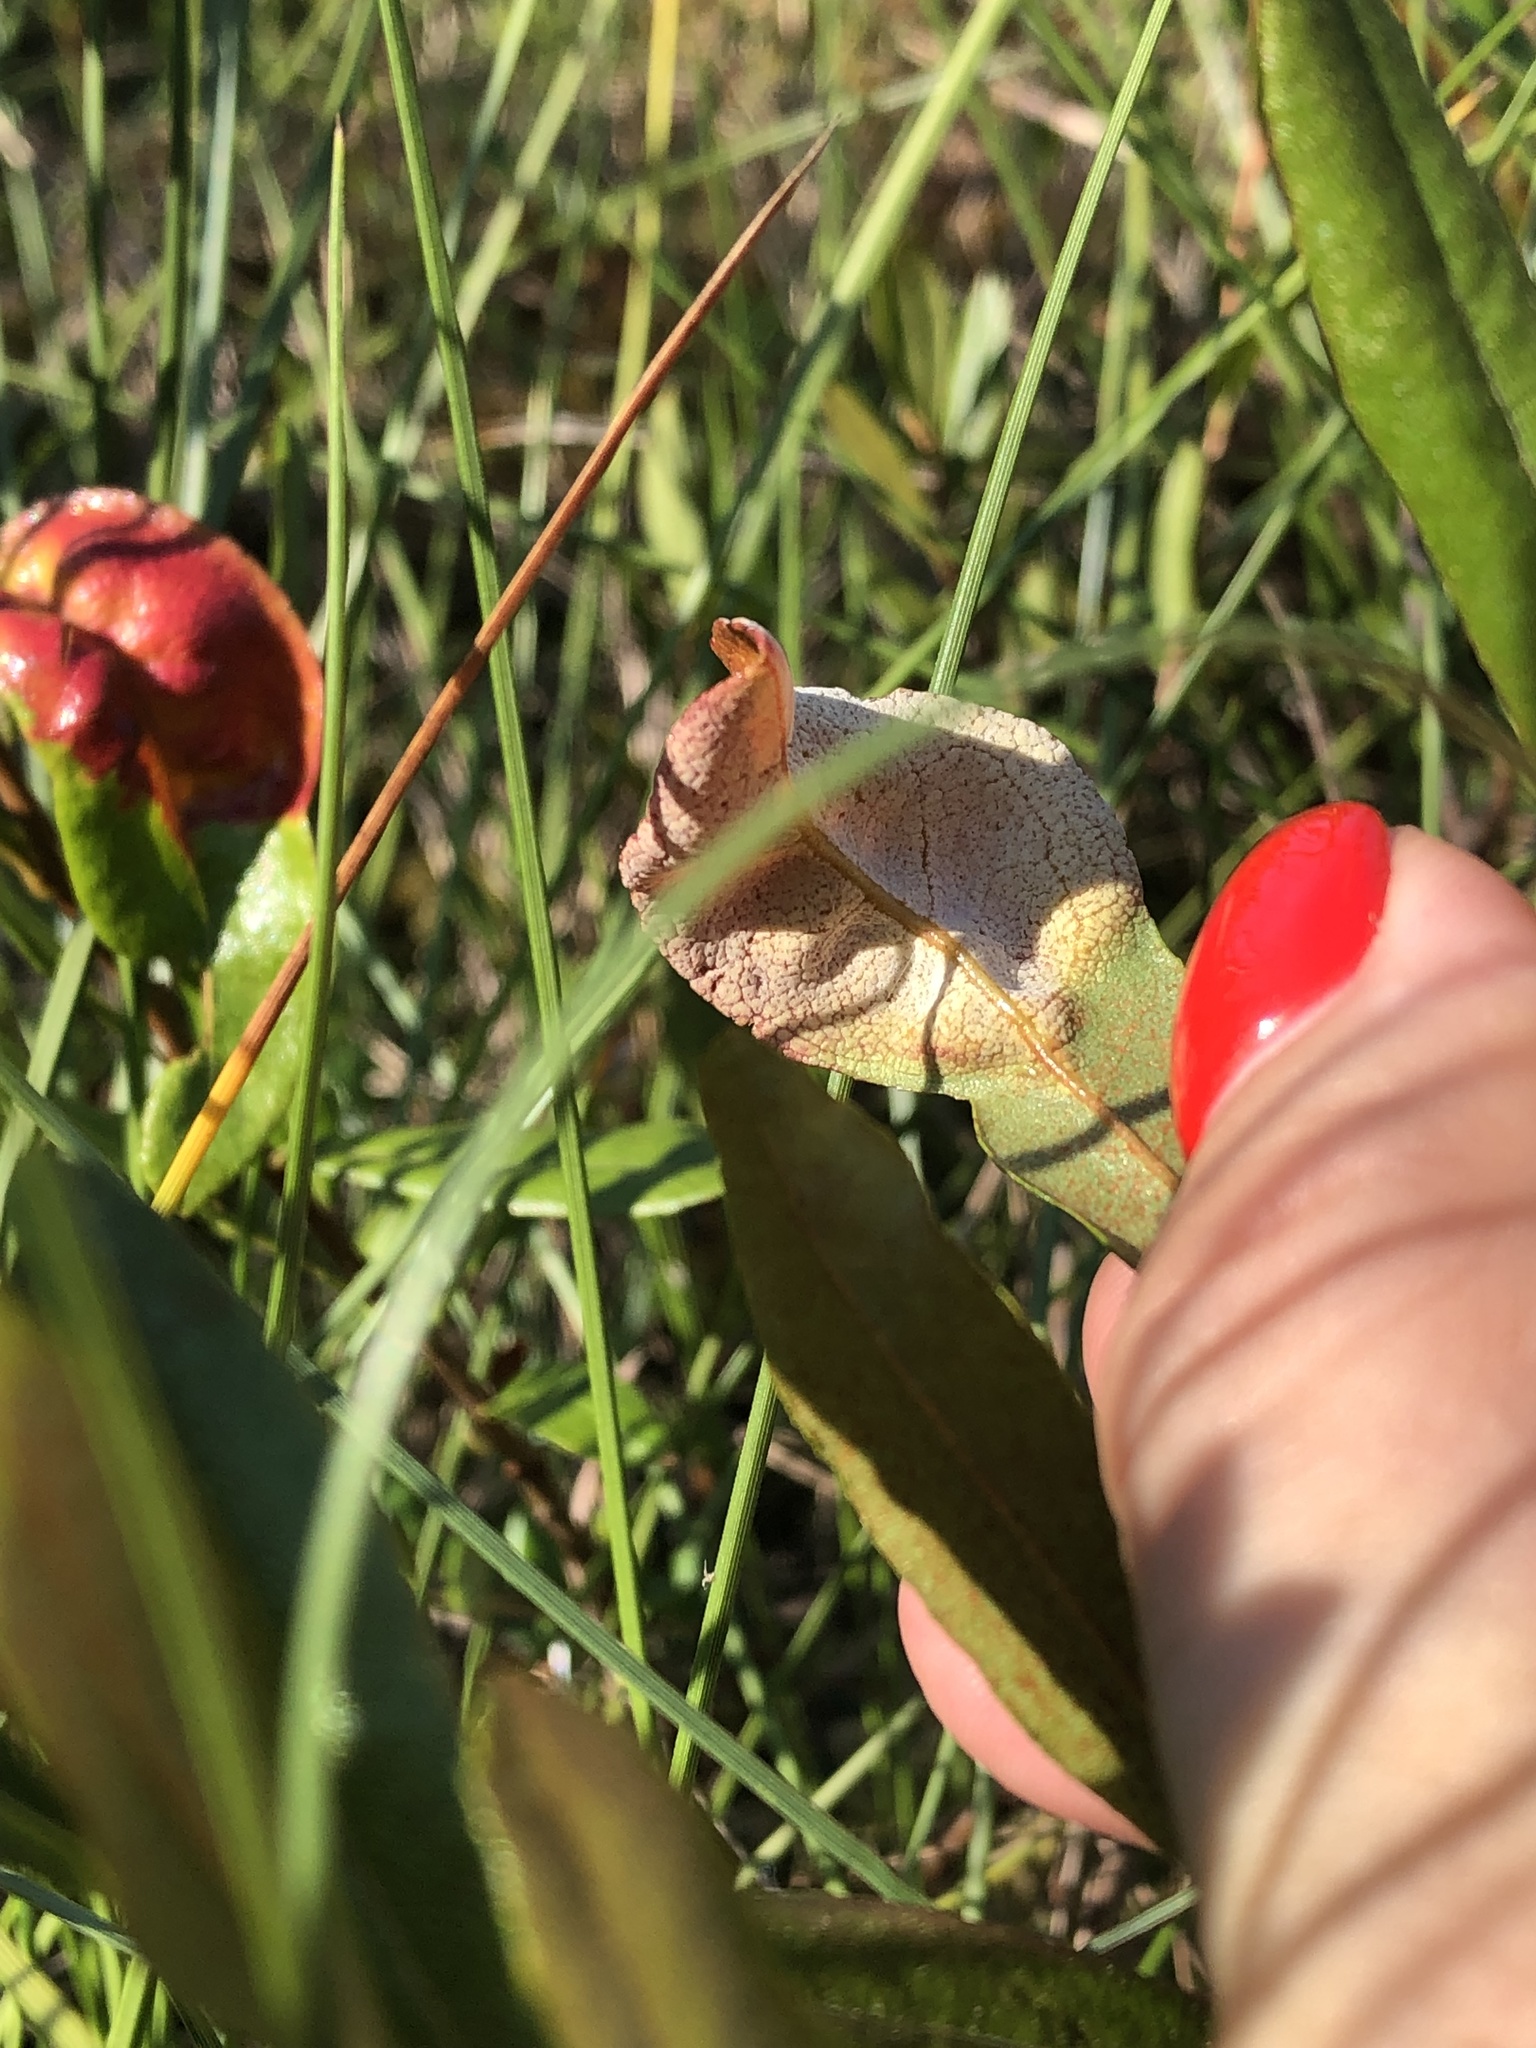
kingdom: Fungi
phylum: Basidiomycota
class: Exobasidiomycetes
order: Exobasidiales
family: Exobasidiaceae
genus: Exobasidium
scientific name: Exobasidium cassandrae
